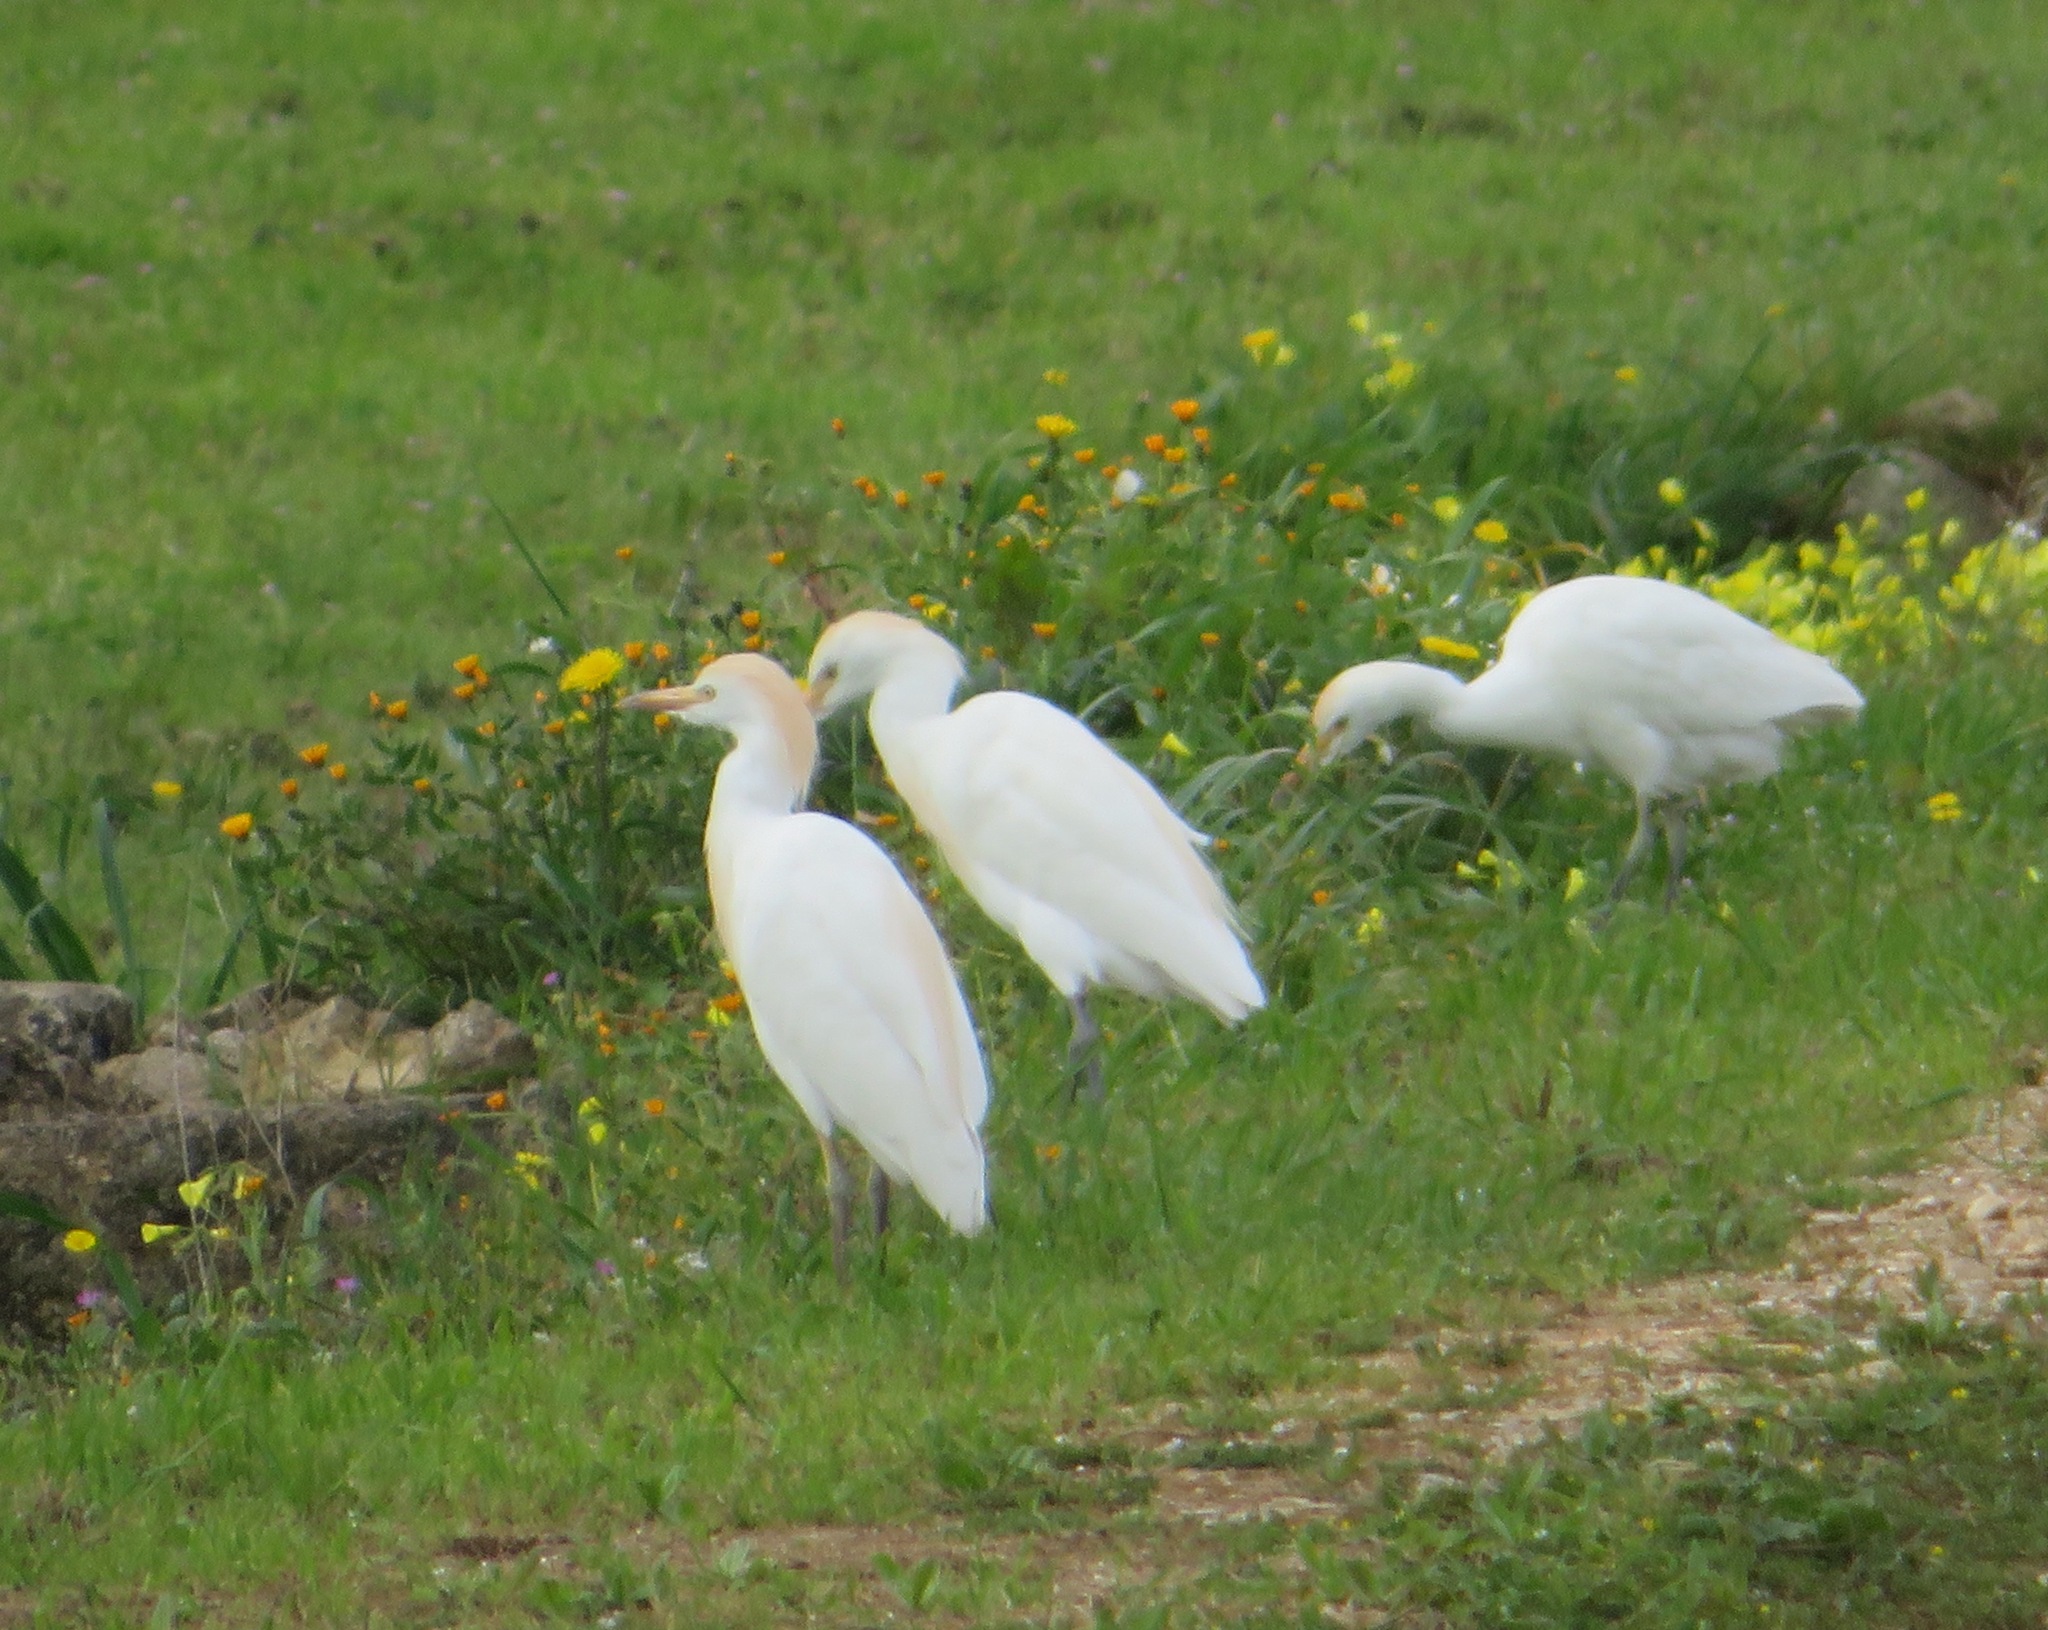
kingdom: Animalia
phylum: Chordata
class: Aves
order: Pelecaniformes
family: Ardeidae
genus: Bubulcus
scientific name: Bubulcus ibis
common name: Cattle egret
